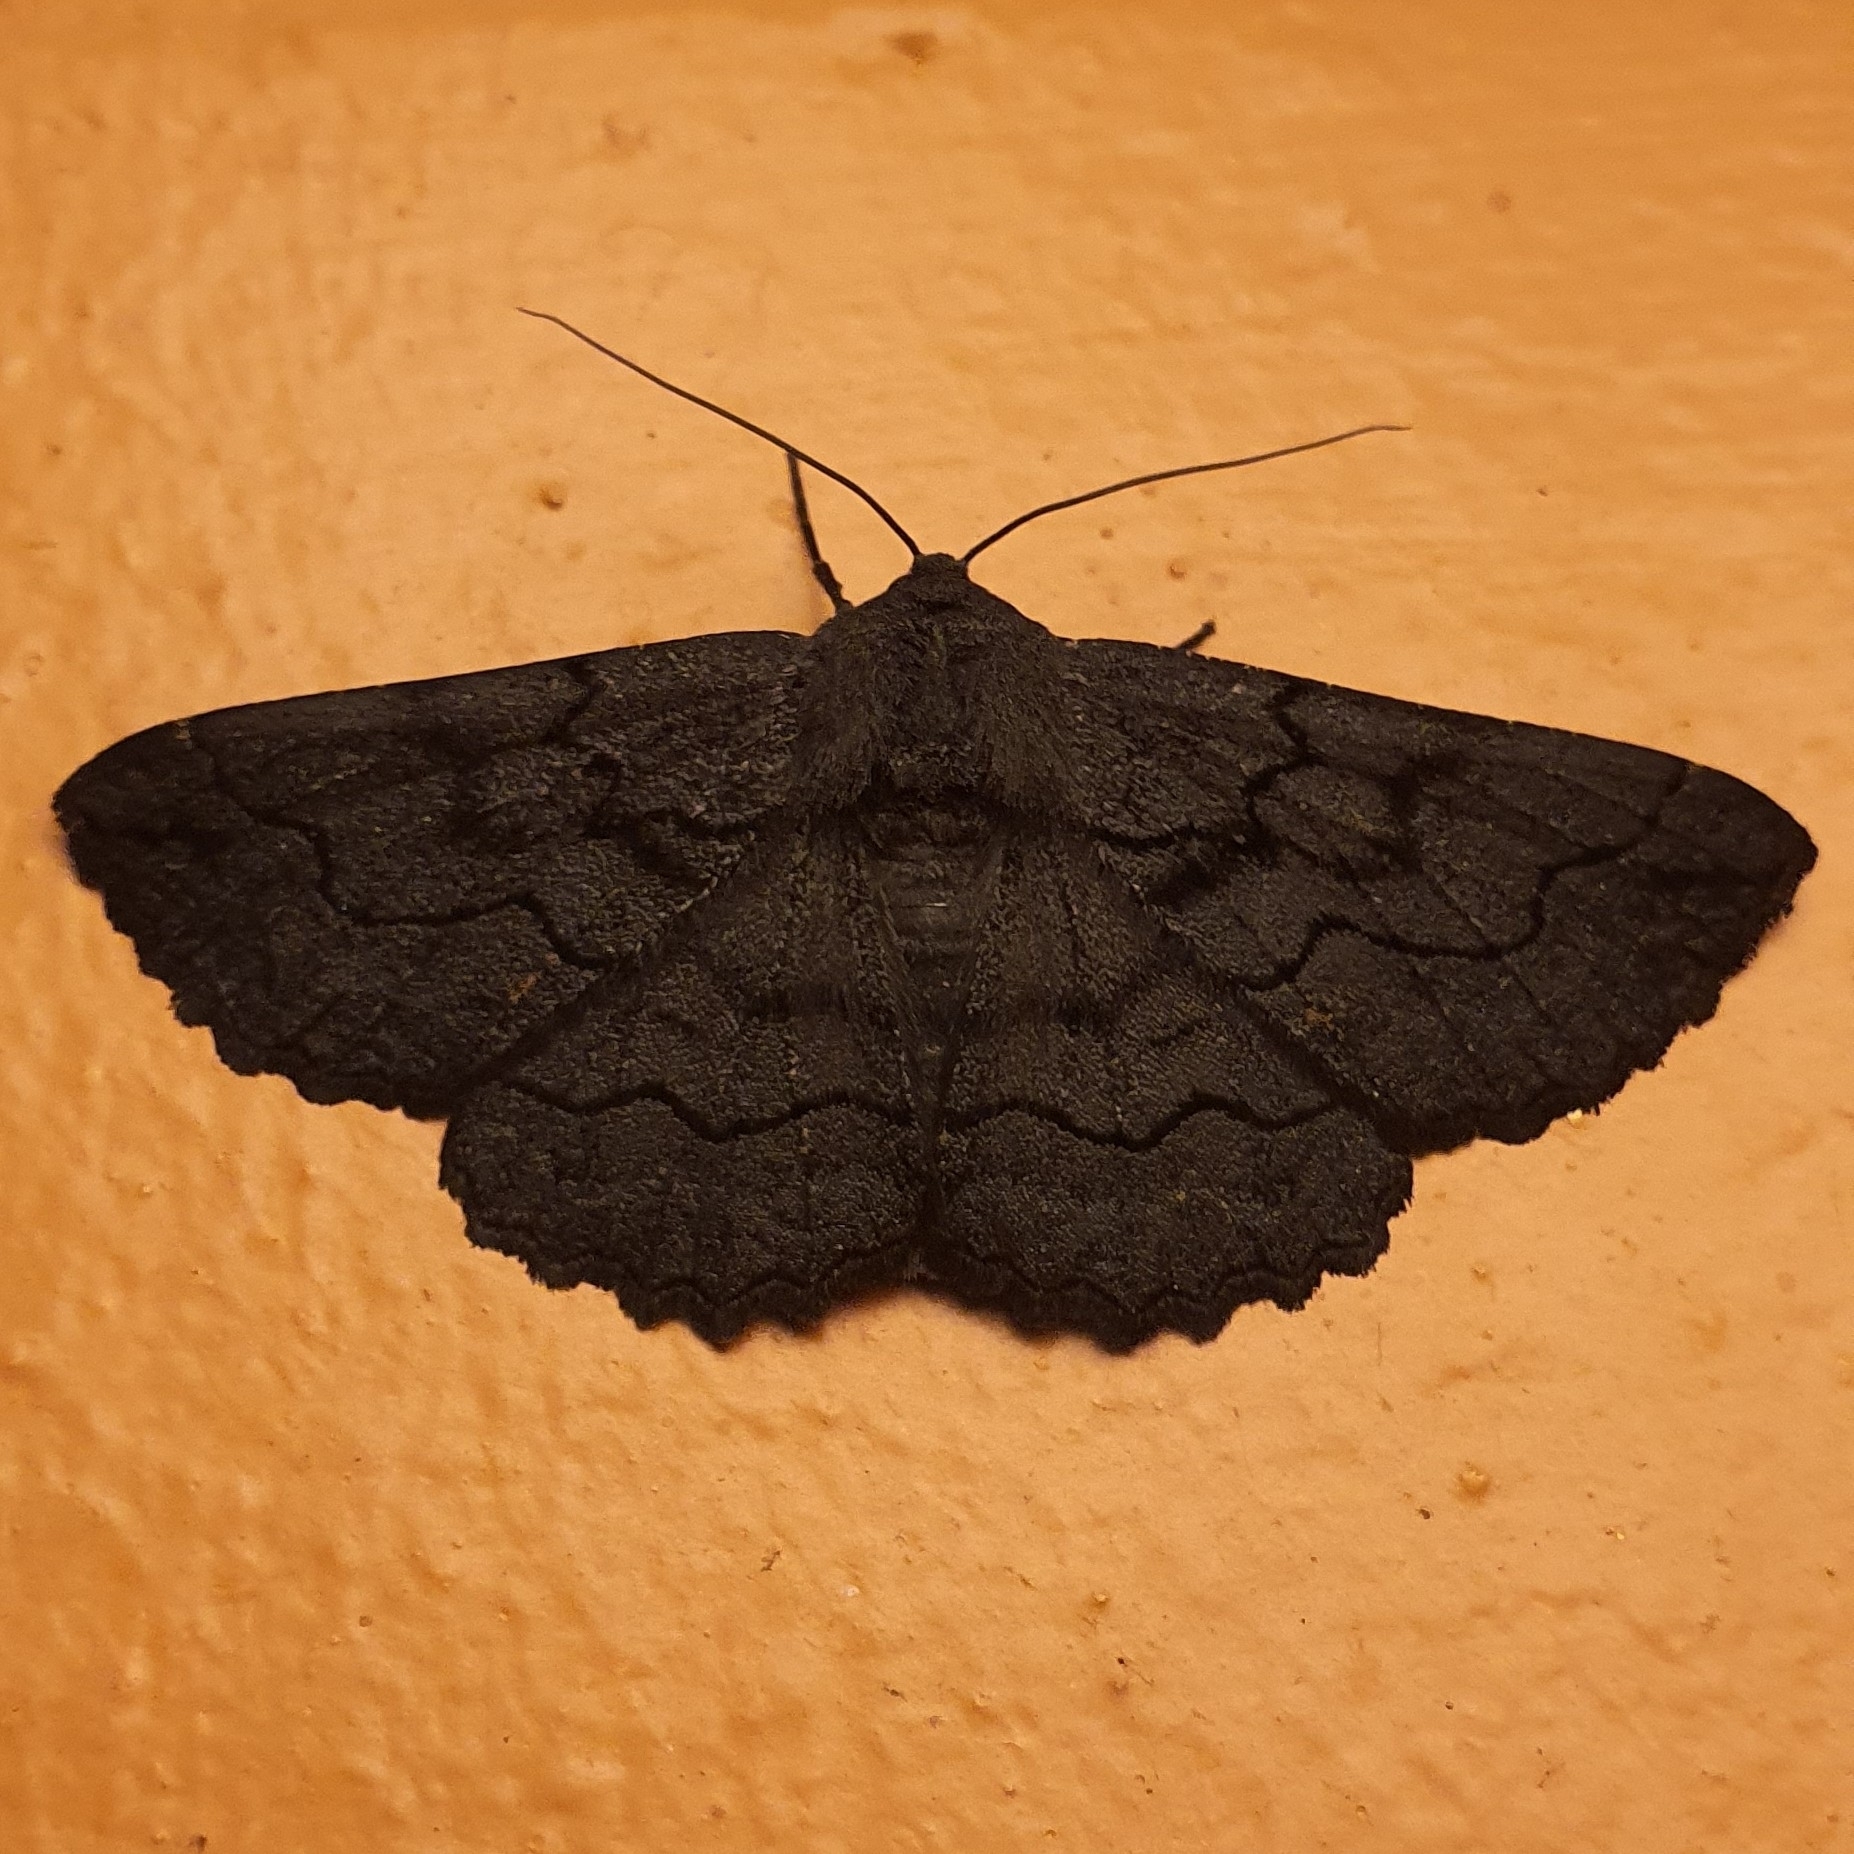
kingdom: Animalia
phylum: Arthropoda
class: Insecta
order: Lepidoptera
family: Geometridae
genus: Melanodes
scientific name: Melanodes anthracitaria
